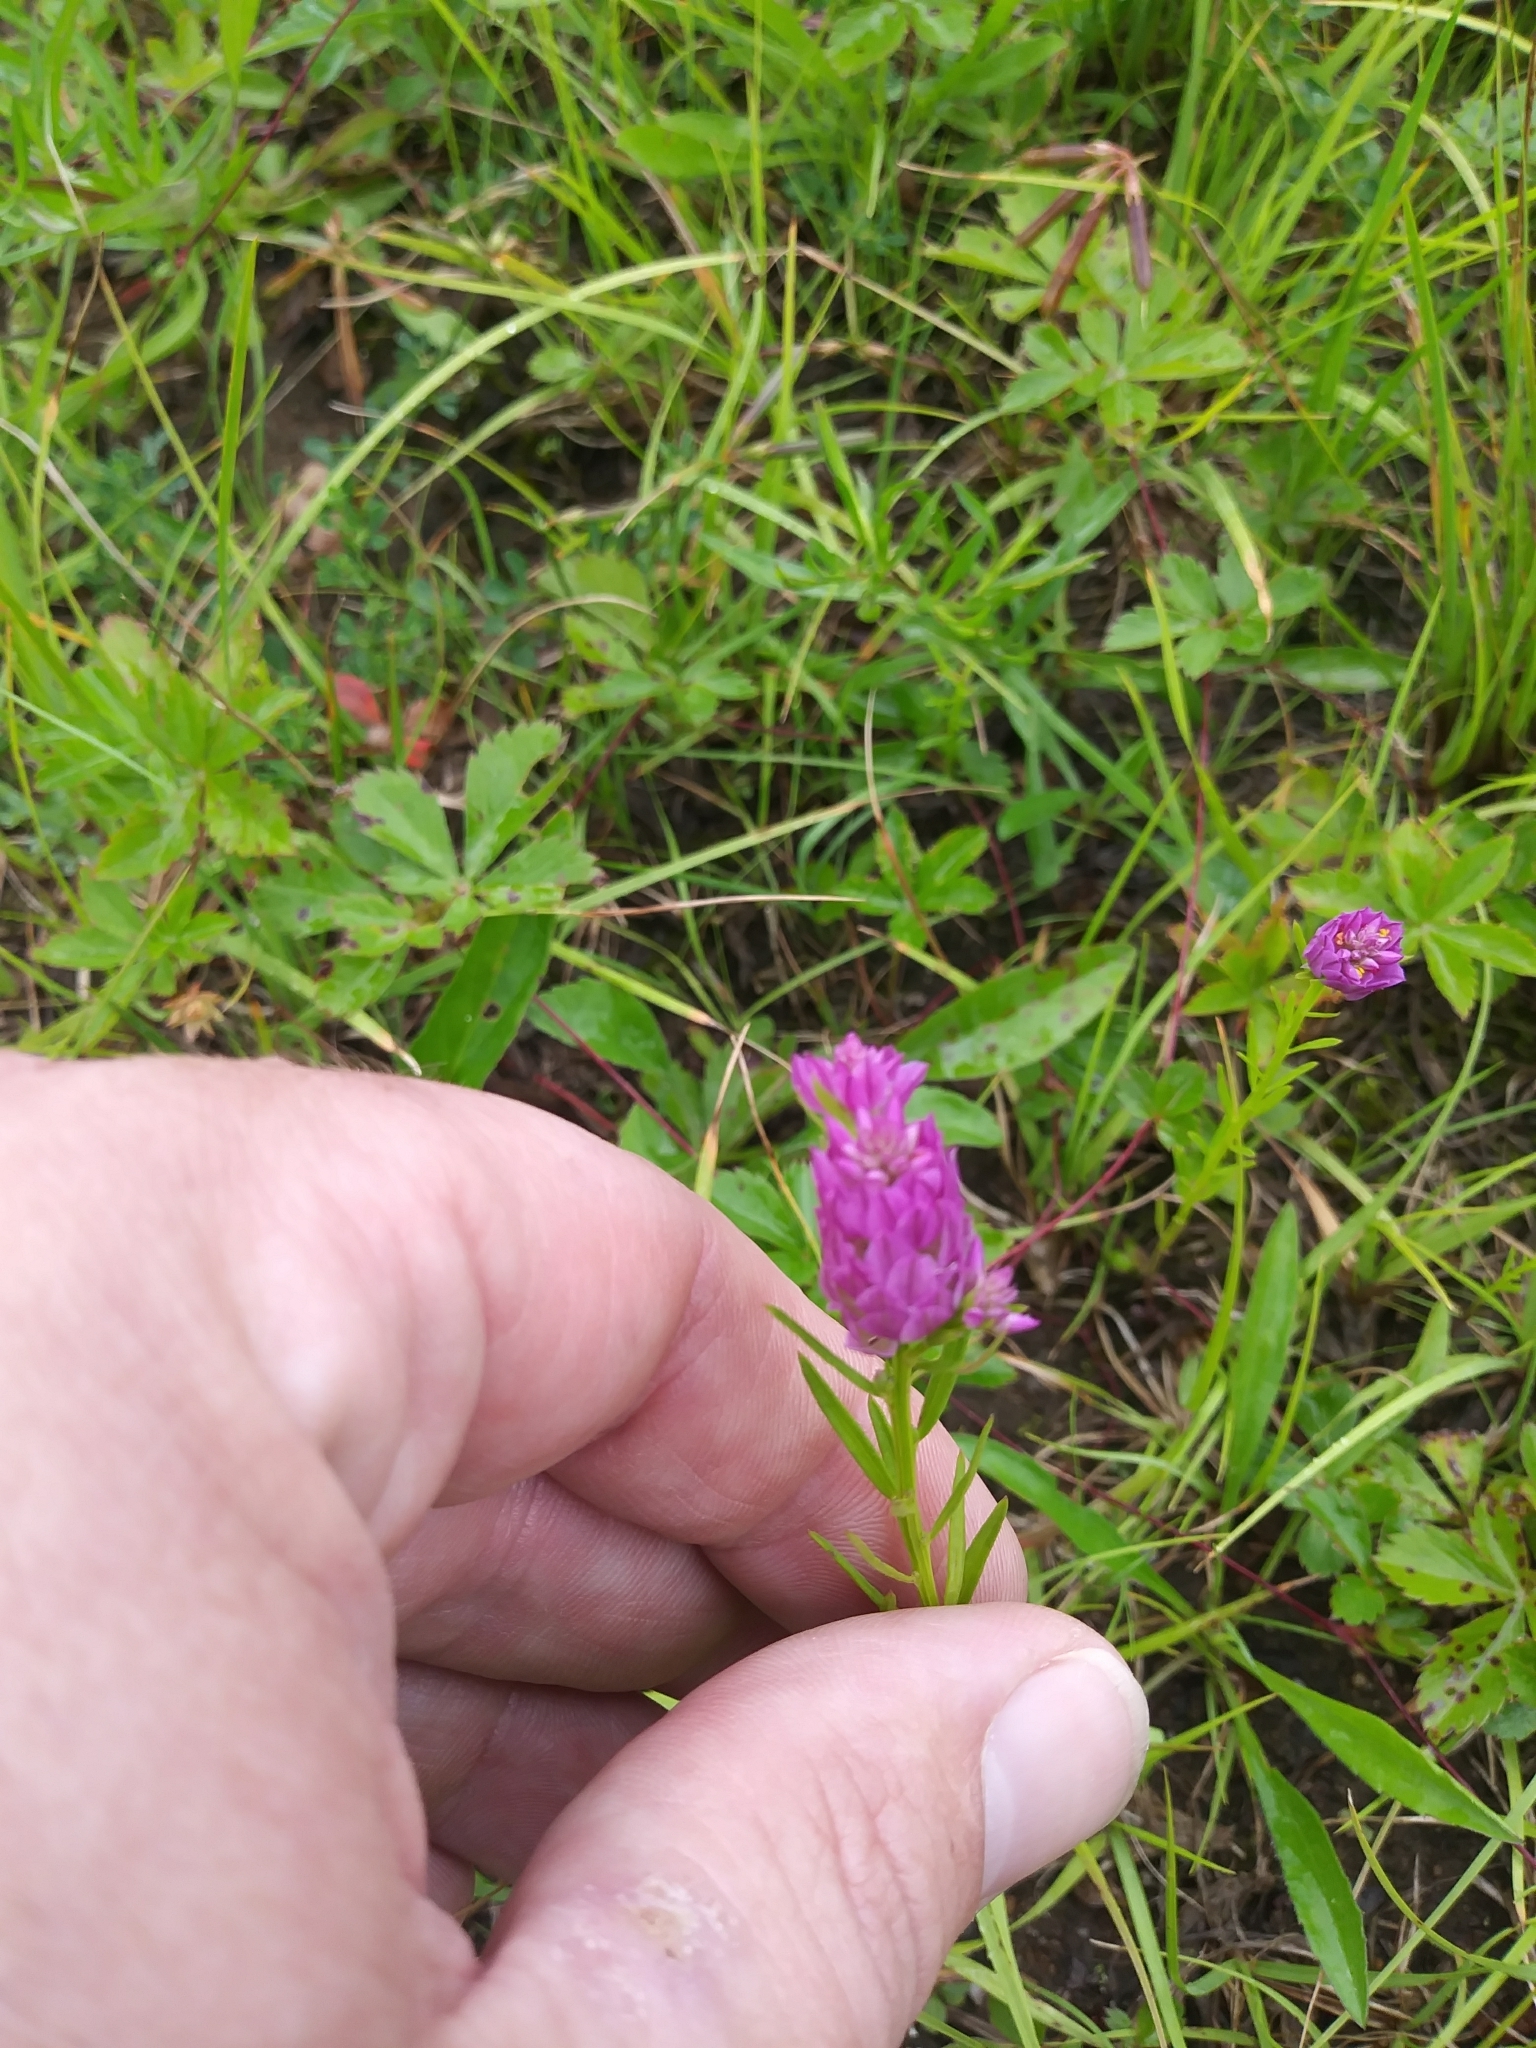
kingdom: Plantae
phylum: Tracheophyta
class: Magnoliopsida
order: Fabales
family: Polygalaceae
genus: Polygala
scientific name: Polygala sanguinea
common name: Blood milkwort
